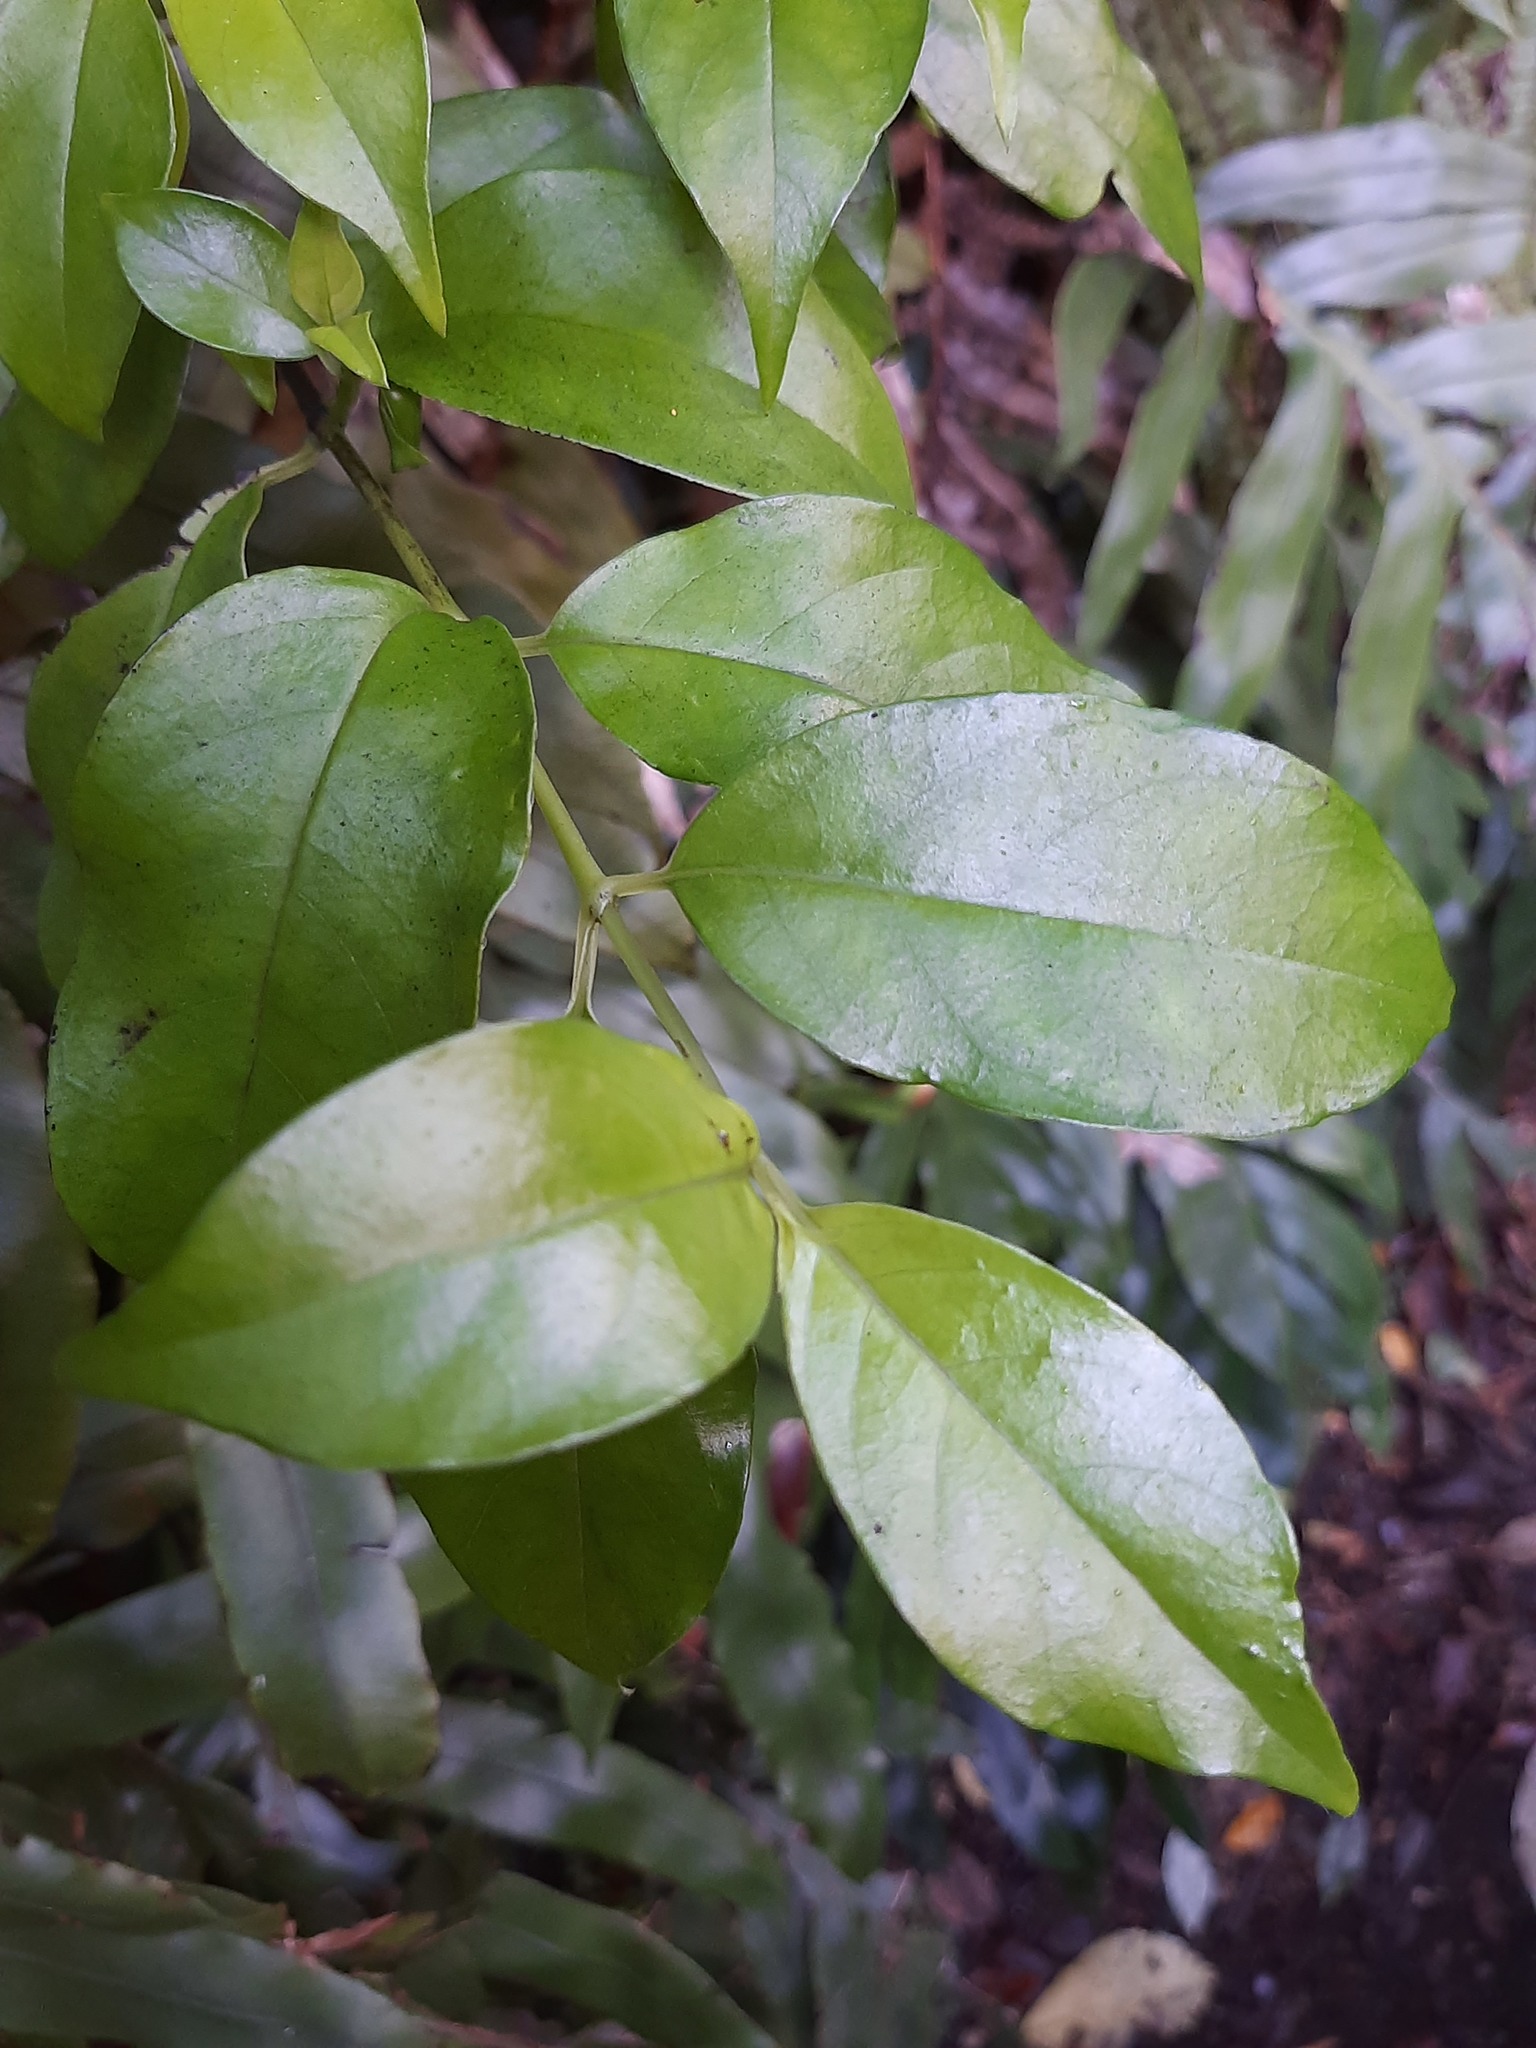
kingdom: Plantae
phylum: Tracheophyta
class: Magnoliopsida
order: Gentianales
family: Loganiaceae
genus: Geniostoma
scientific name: Geniostoma ligustrifolium
